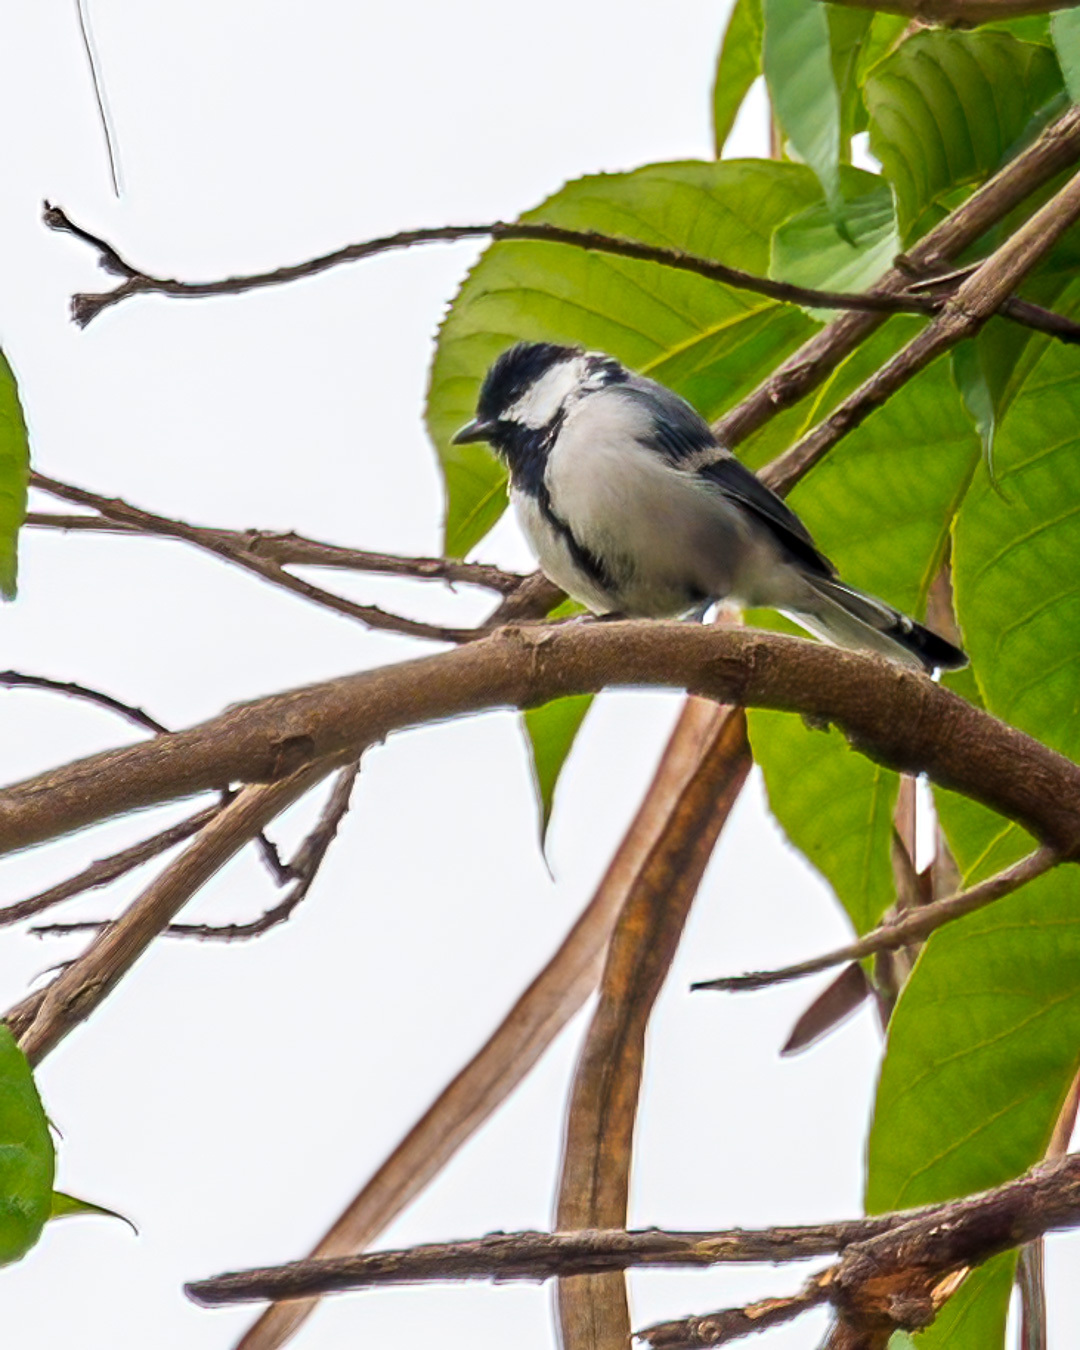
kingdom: Animalia
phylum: Chordata
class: Aves
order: Passeriformes
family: Paridae
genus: Parus
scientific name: Parus cinereus
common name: Cinereous tit
